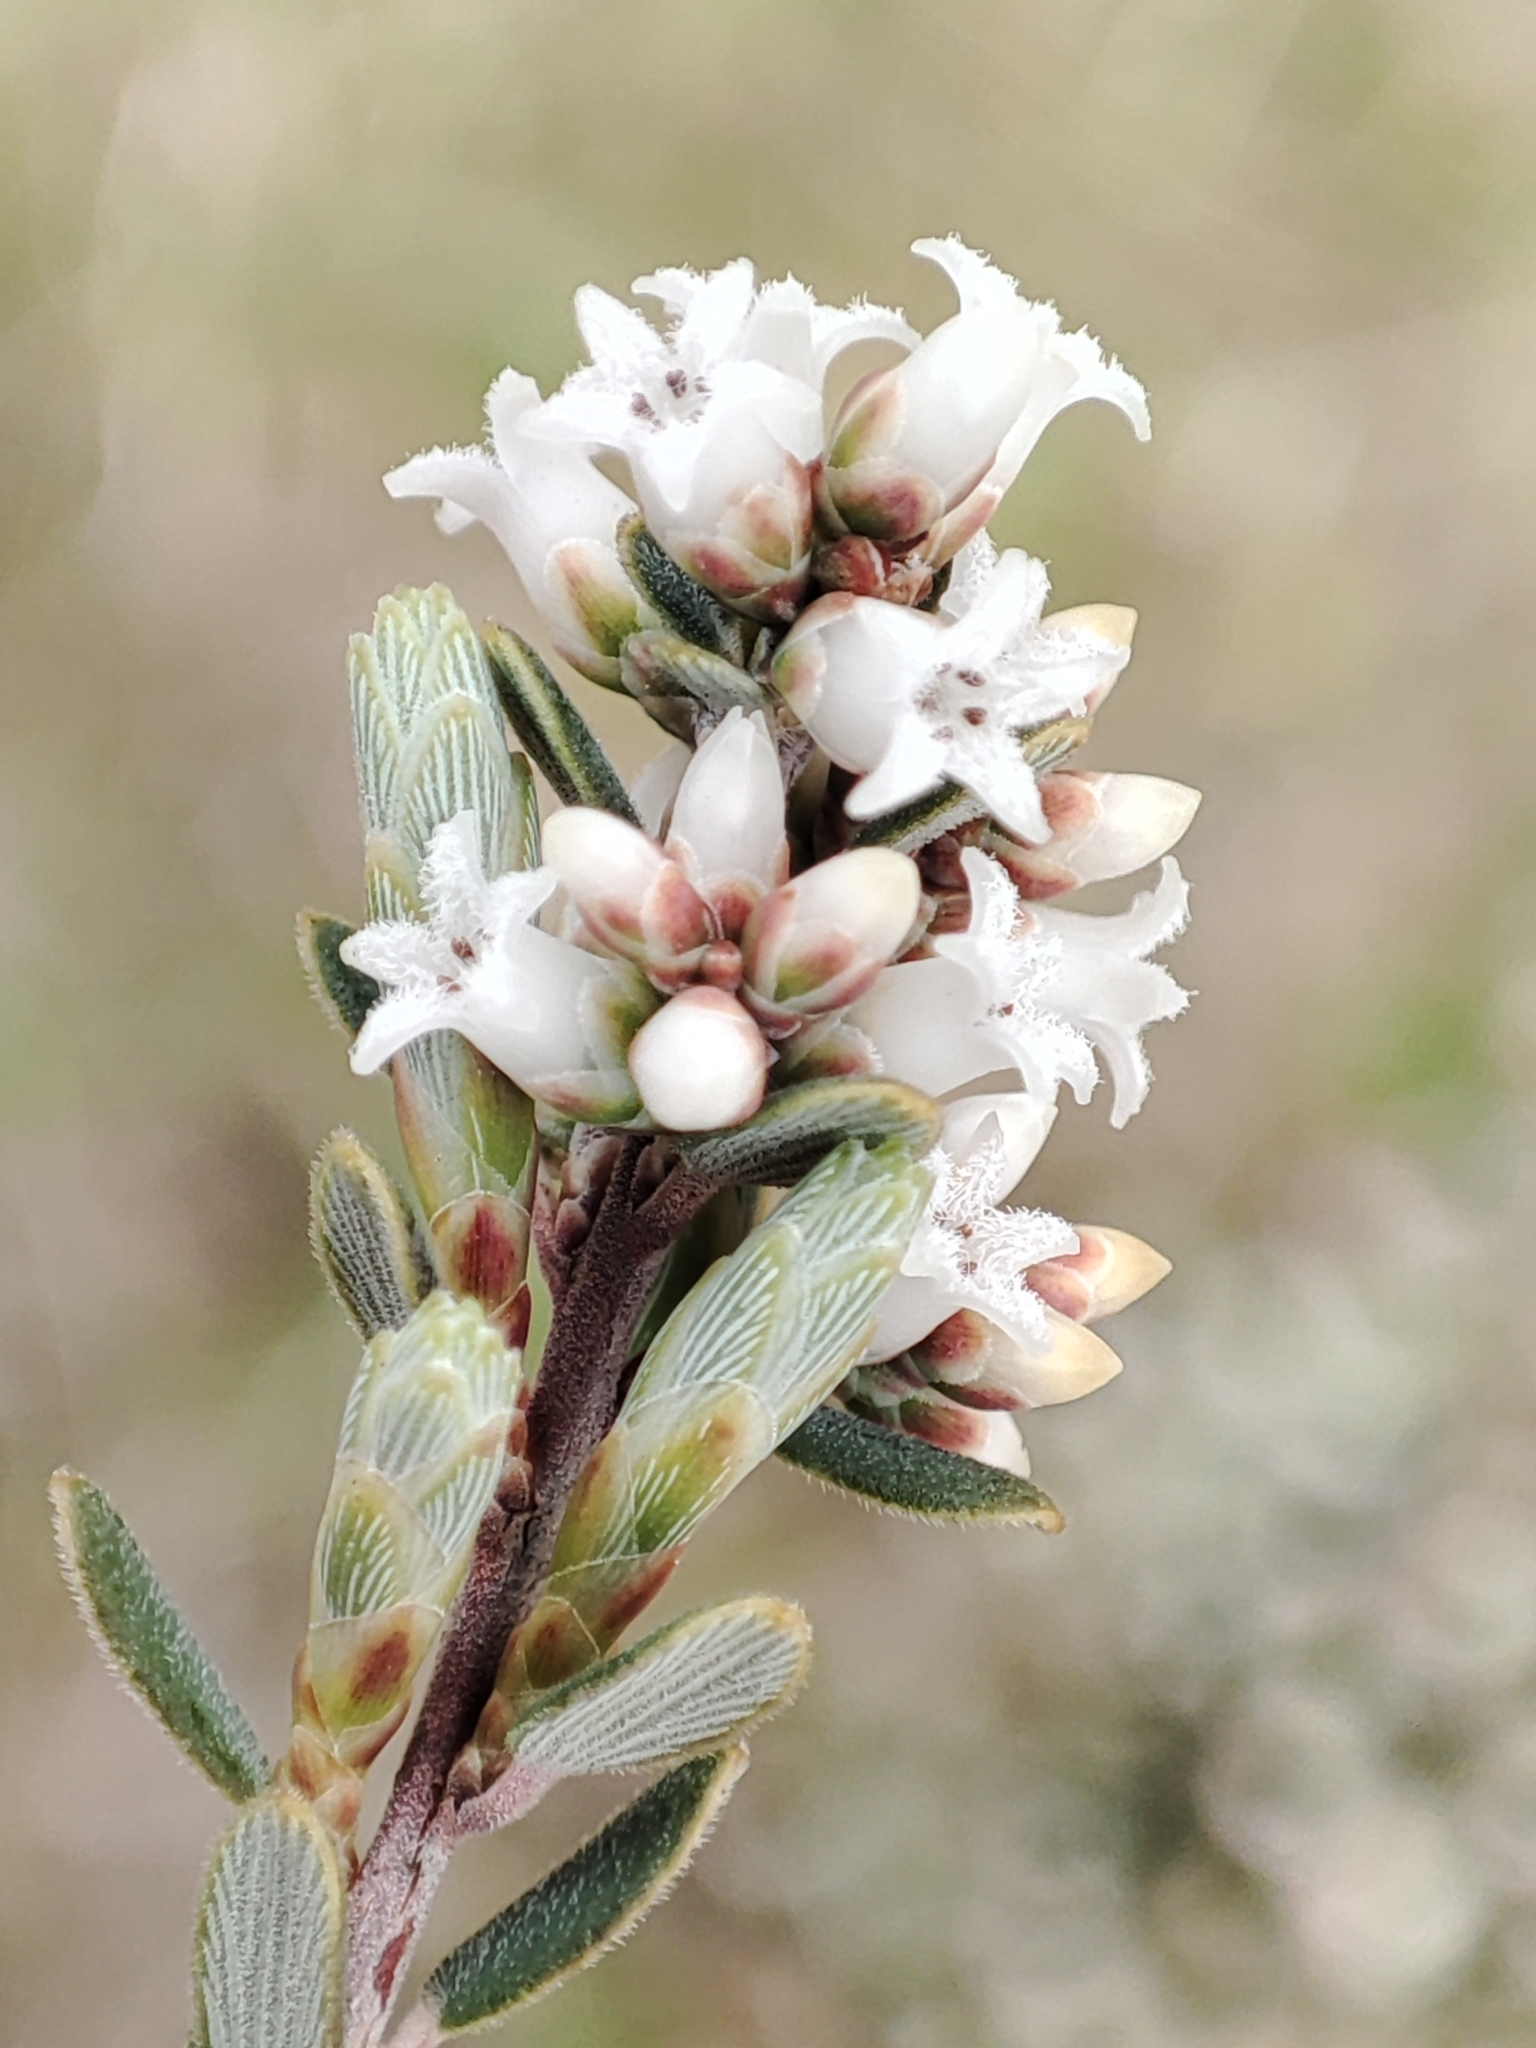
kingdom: Plantae
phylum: Tracheophyta
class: Magnoliopsida
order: Ericales
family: Ericaceae
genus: Acrothamnus
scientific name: Acrothamnus hookeri
